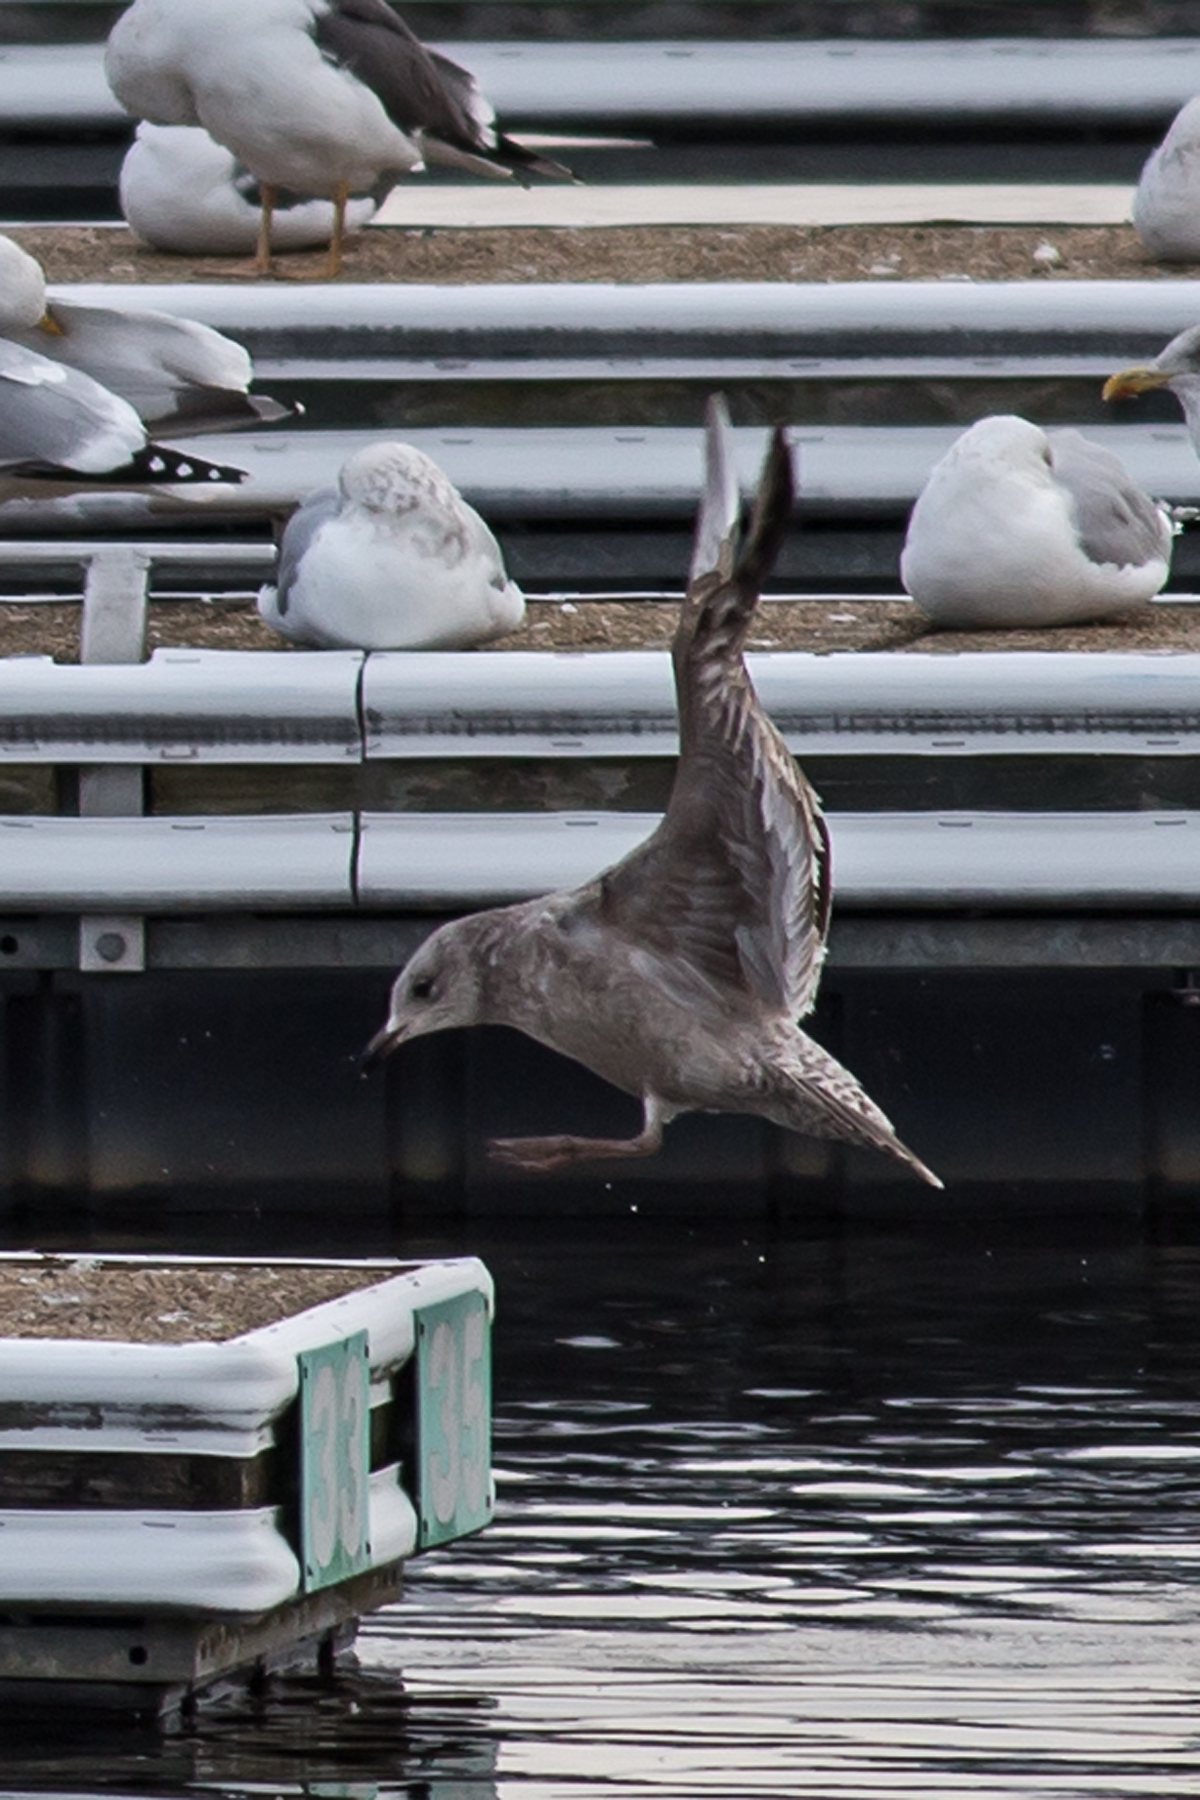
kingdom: Animalia
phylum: Chordata
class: Aves
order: Charadriiformes
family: Laridae
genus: Larus
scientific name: Larus argentatus
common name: Herring gull
